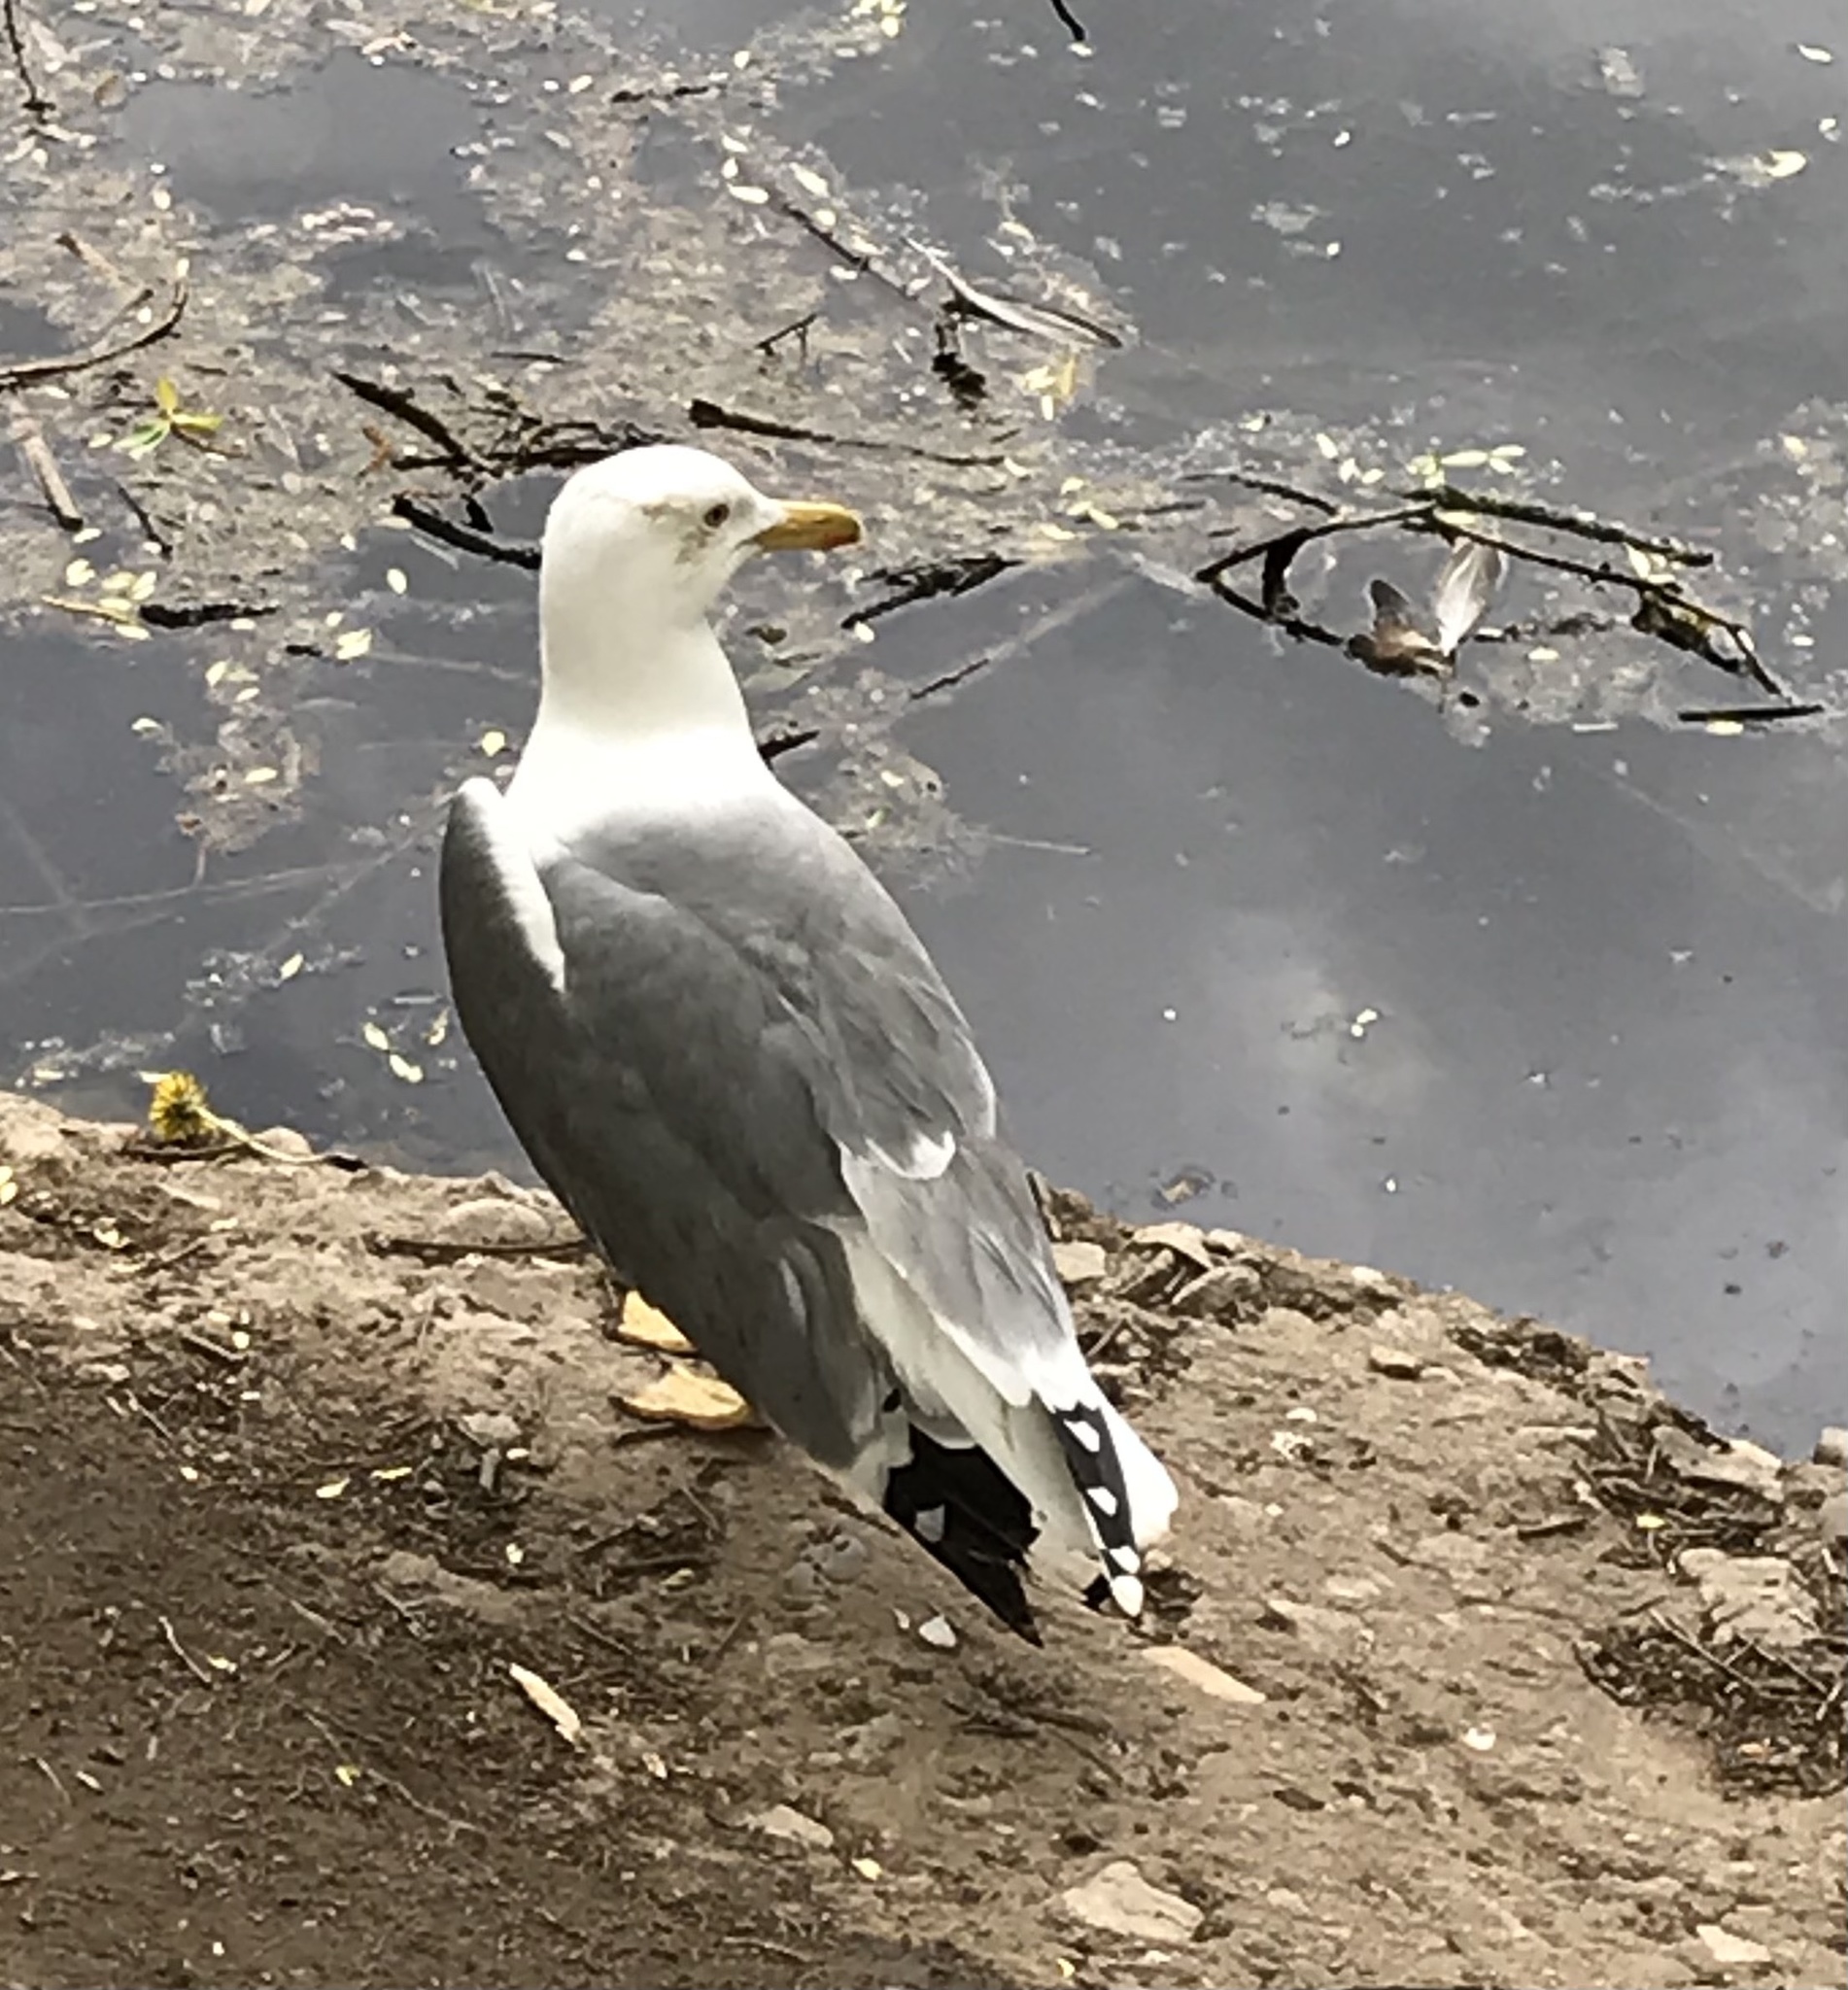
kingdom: Animalia
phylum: Chordata
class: Aves
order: Charadriiformes
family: Laridae
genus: Larus
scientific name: Larus argentatus
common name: Herring gull
